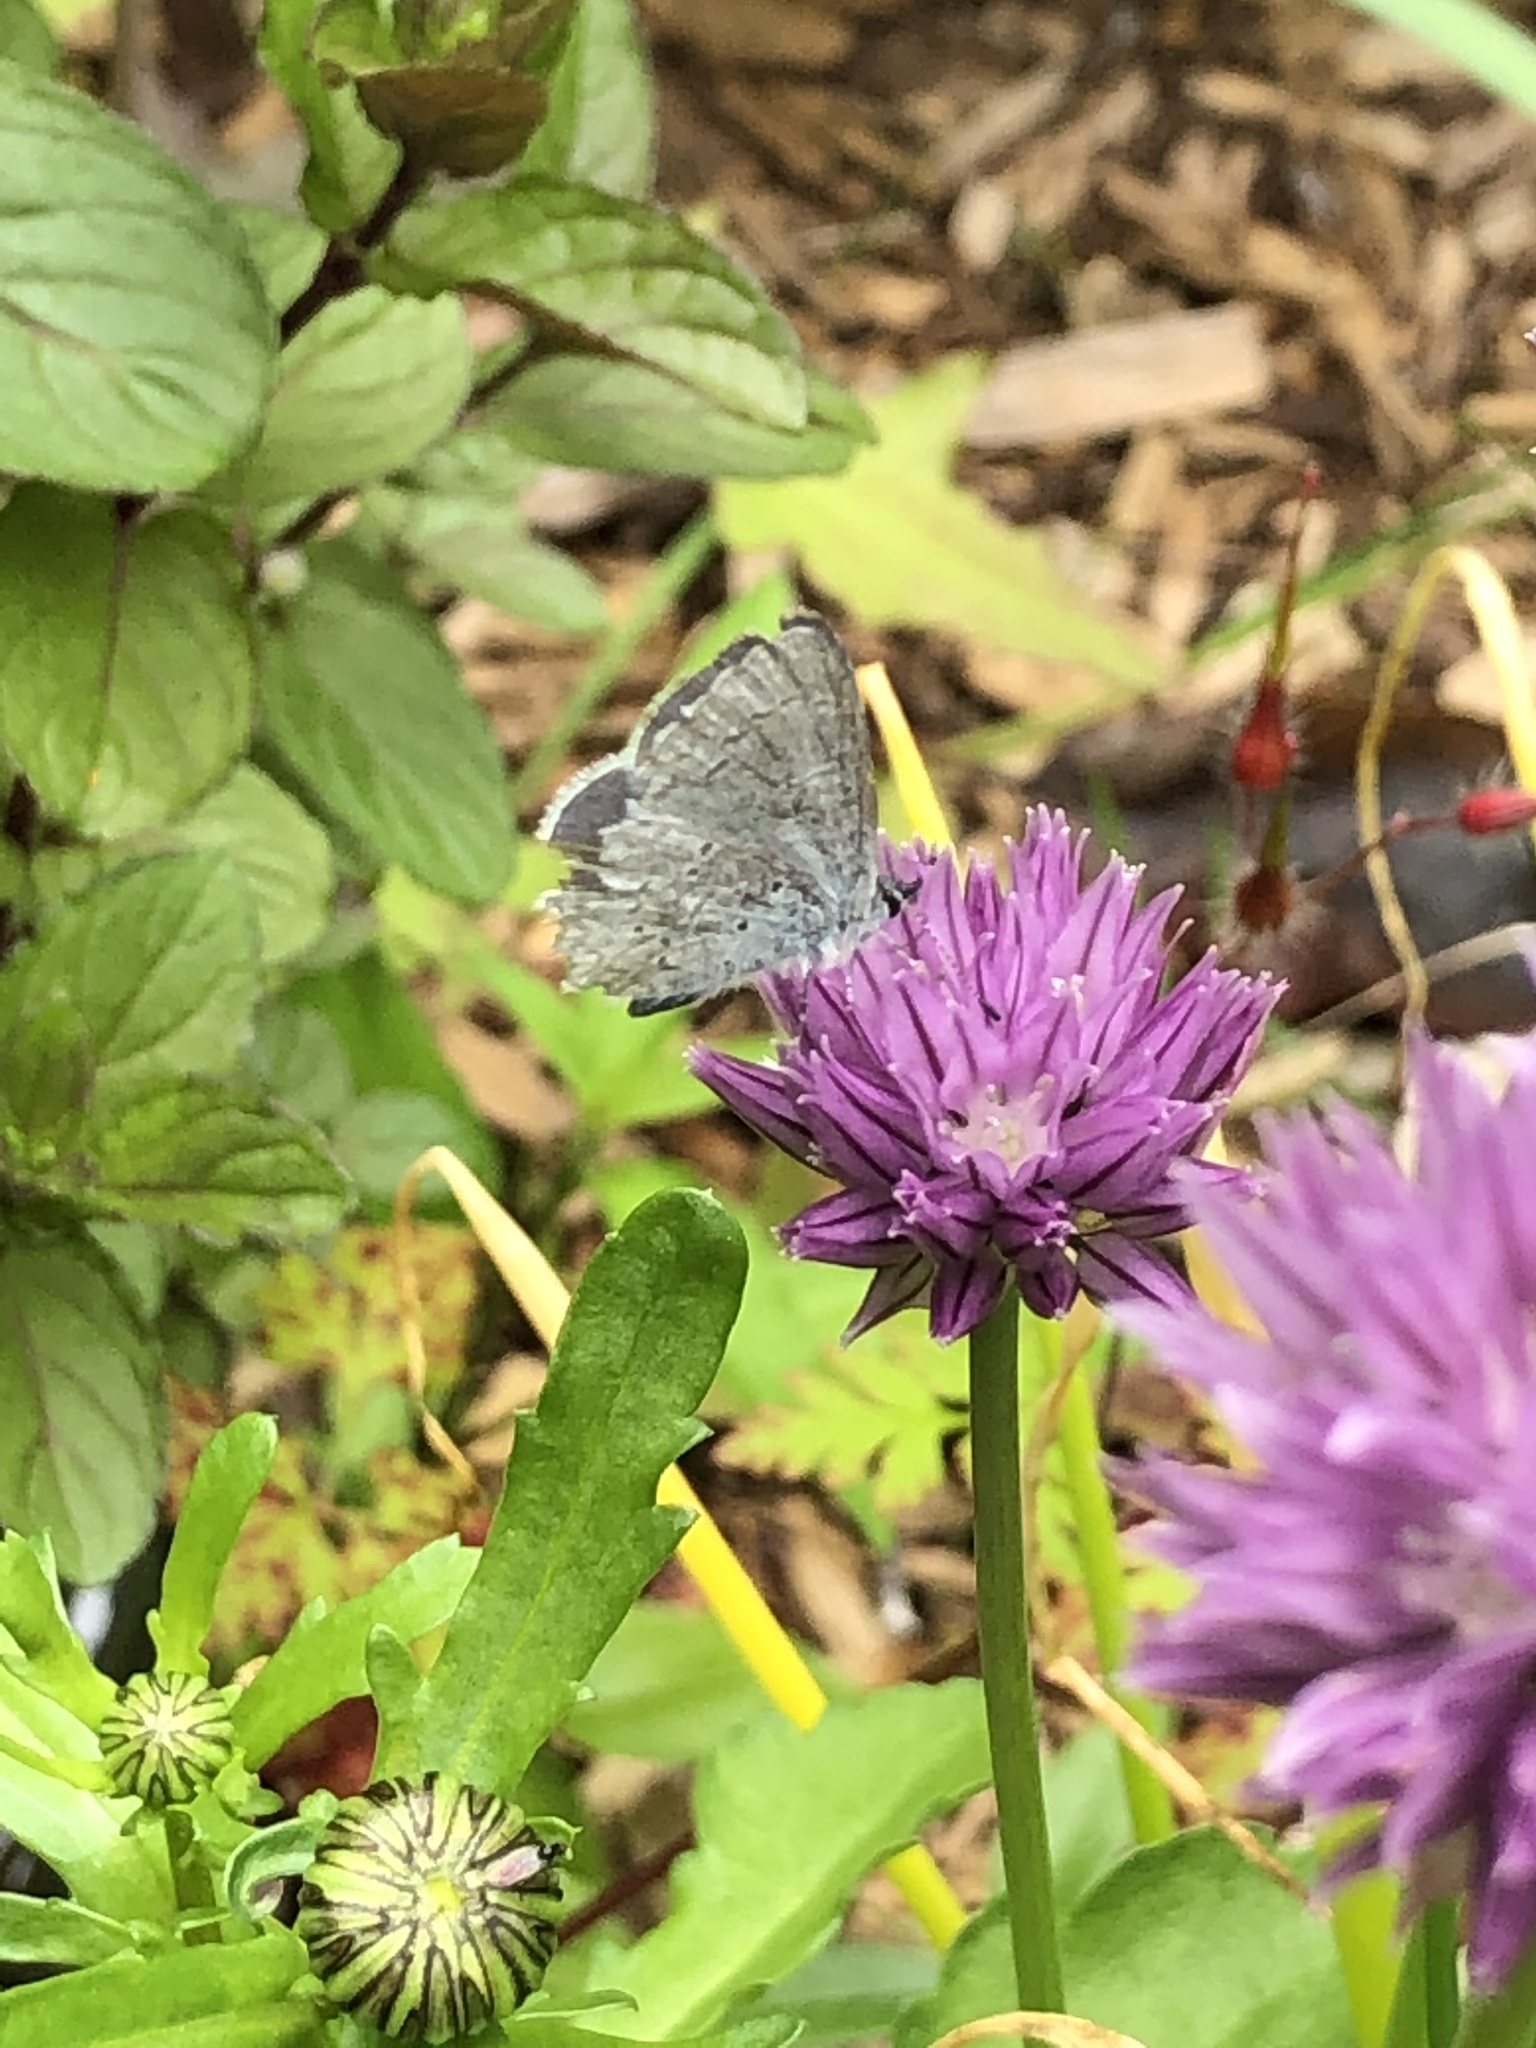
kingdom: Animalia
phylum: Arthropoda
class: Insecta
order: Lepidoptera
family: Lycaenidae
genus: Celastrina
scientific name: Celastrina ladon
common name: Spring azure
